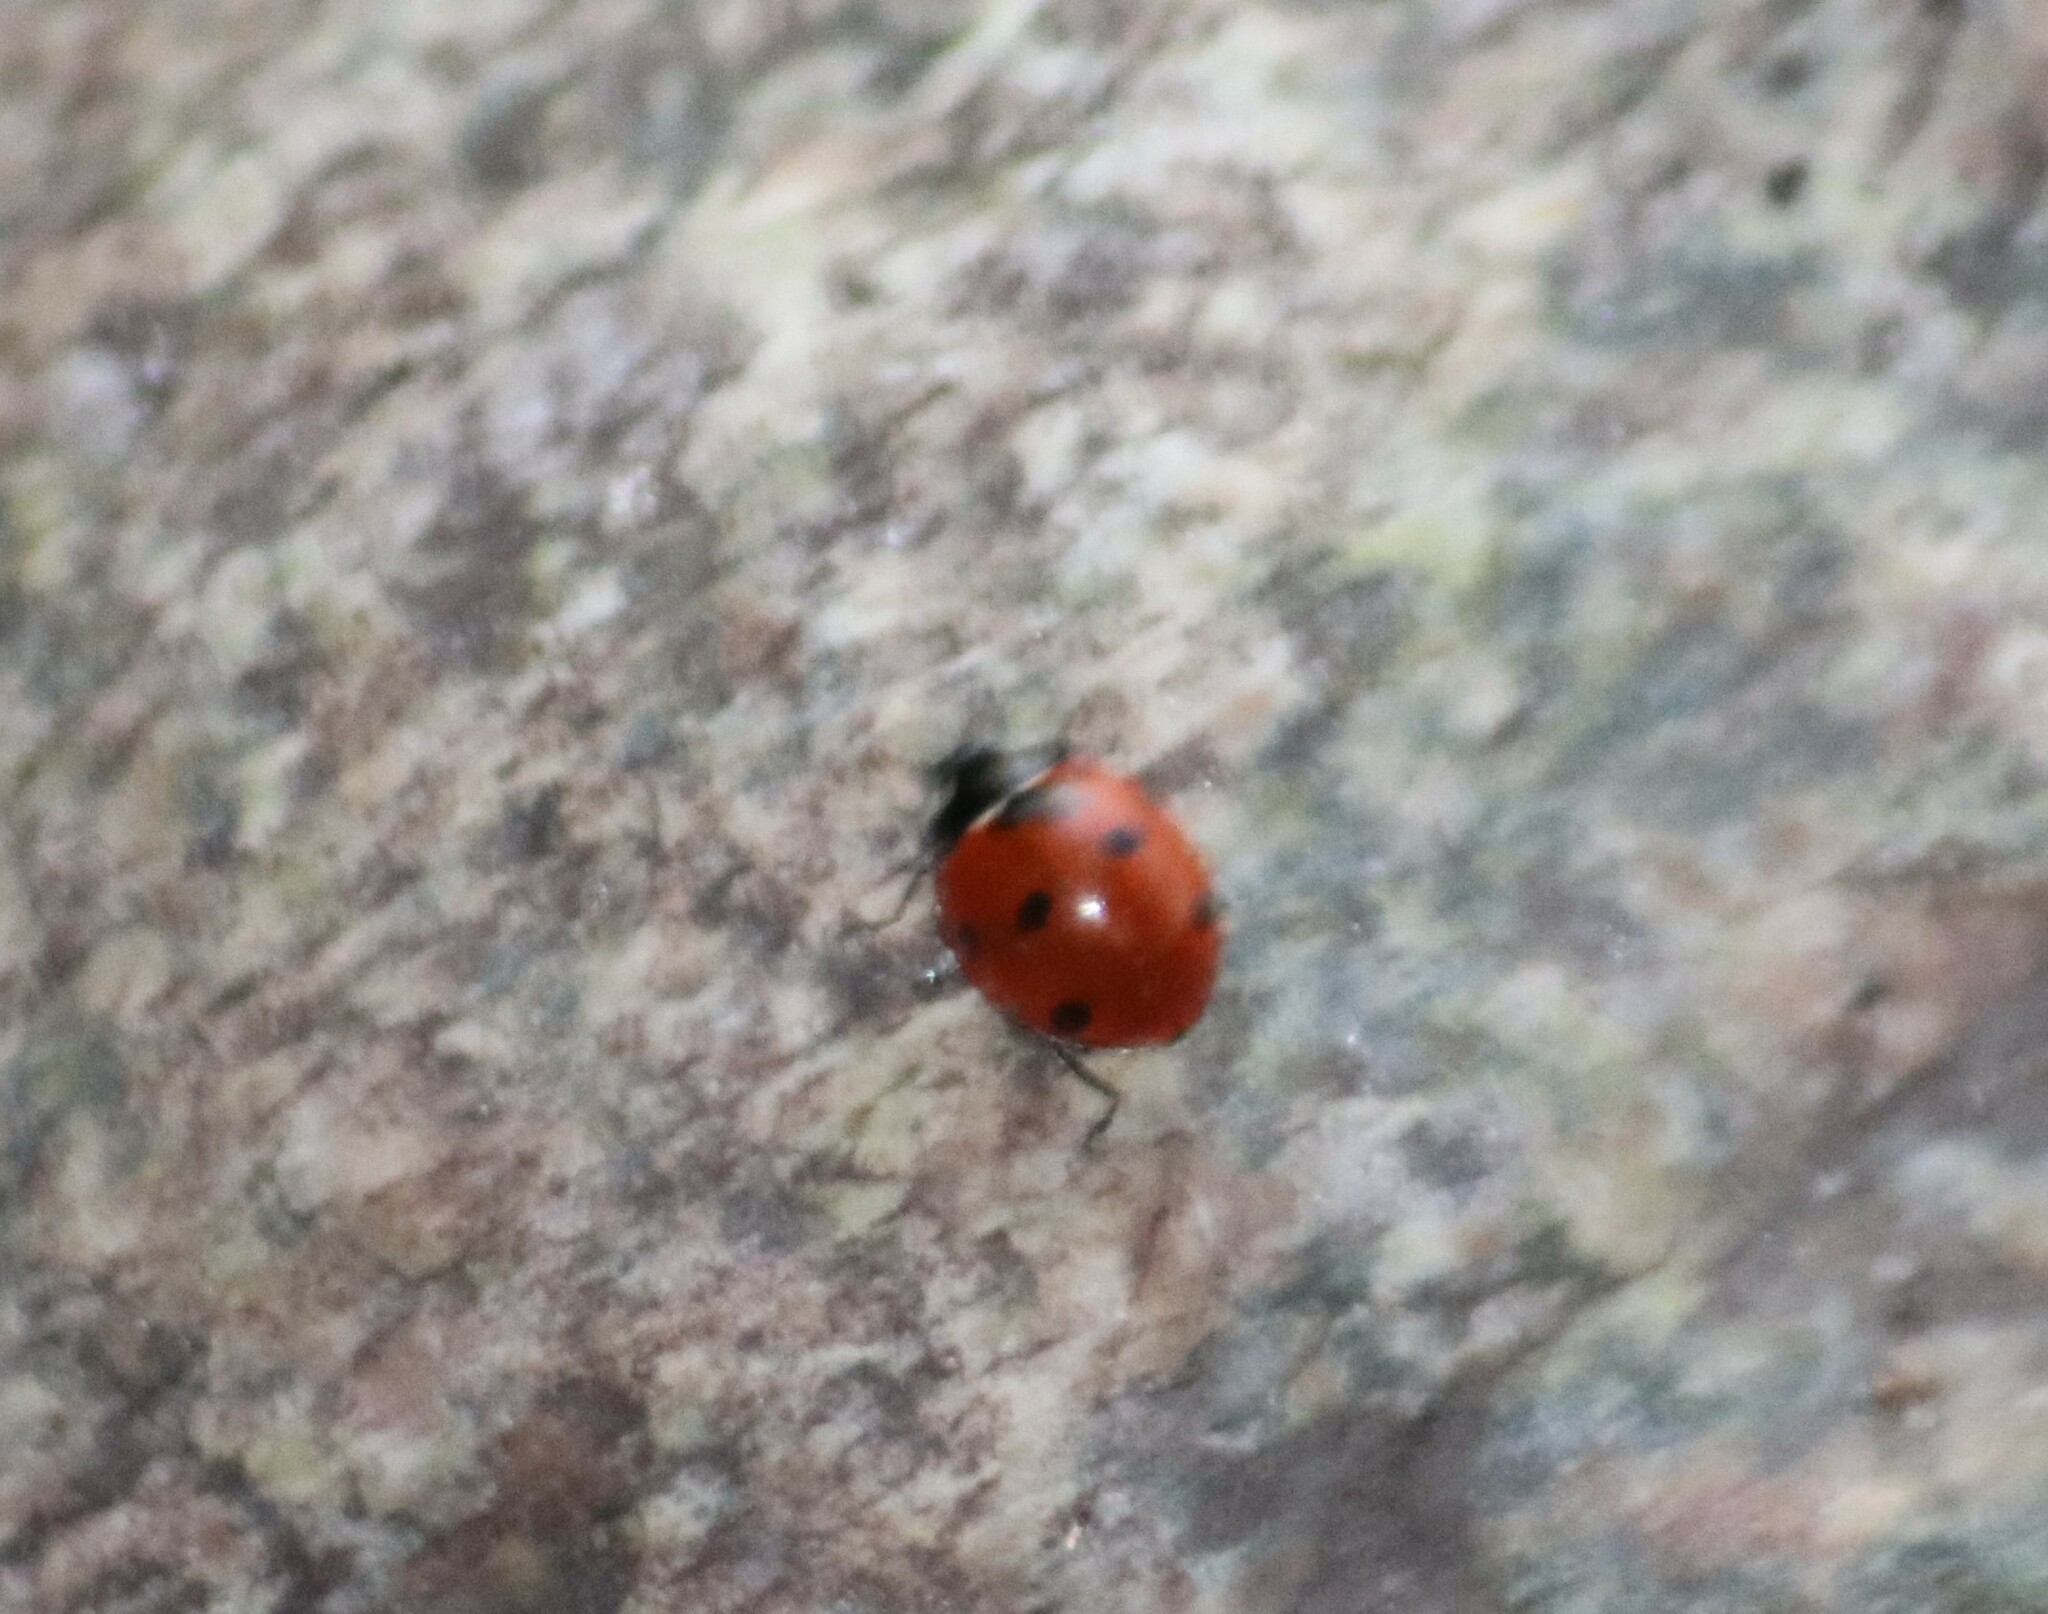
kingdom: Animalia
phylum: Arthropoda
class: Insecta
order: Coleoptera
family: Coccinellidae
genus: Coccinella
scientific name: Coccinella septempunctata
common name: Sevenspotted lady beetle
